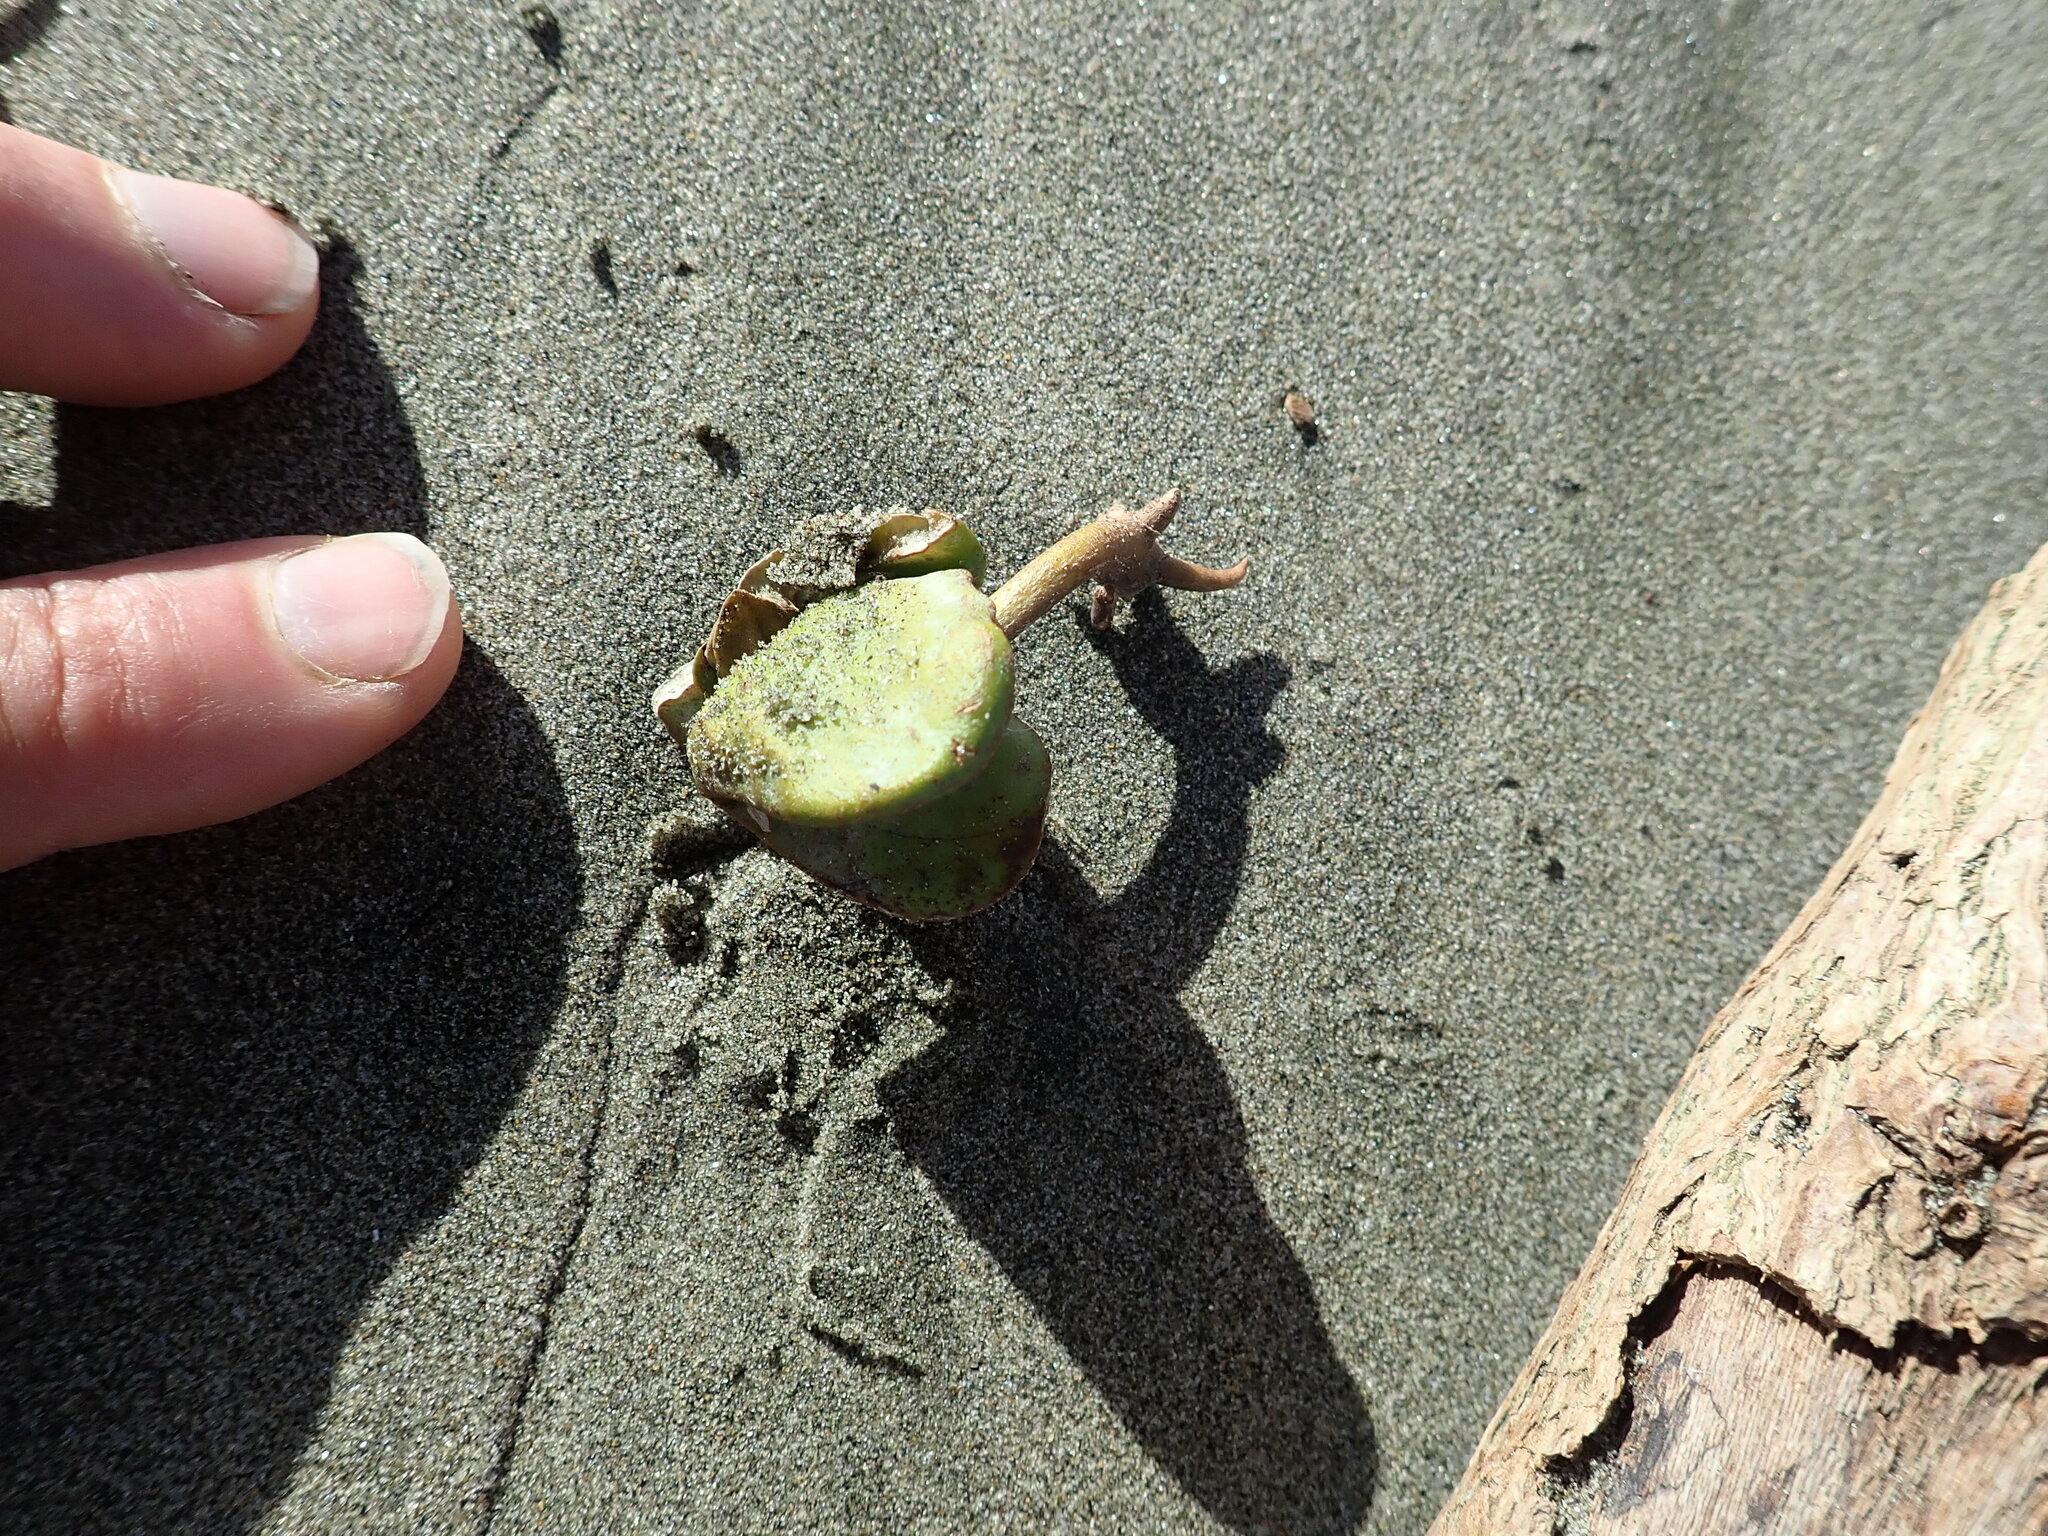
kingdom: Plantae
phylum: Tracheophyta
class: Magnoliopsida
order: Lamiales
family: Acanthaceae
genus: Avicennia
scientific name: Avicennia marina
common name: Gray mangrove
